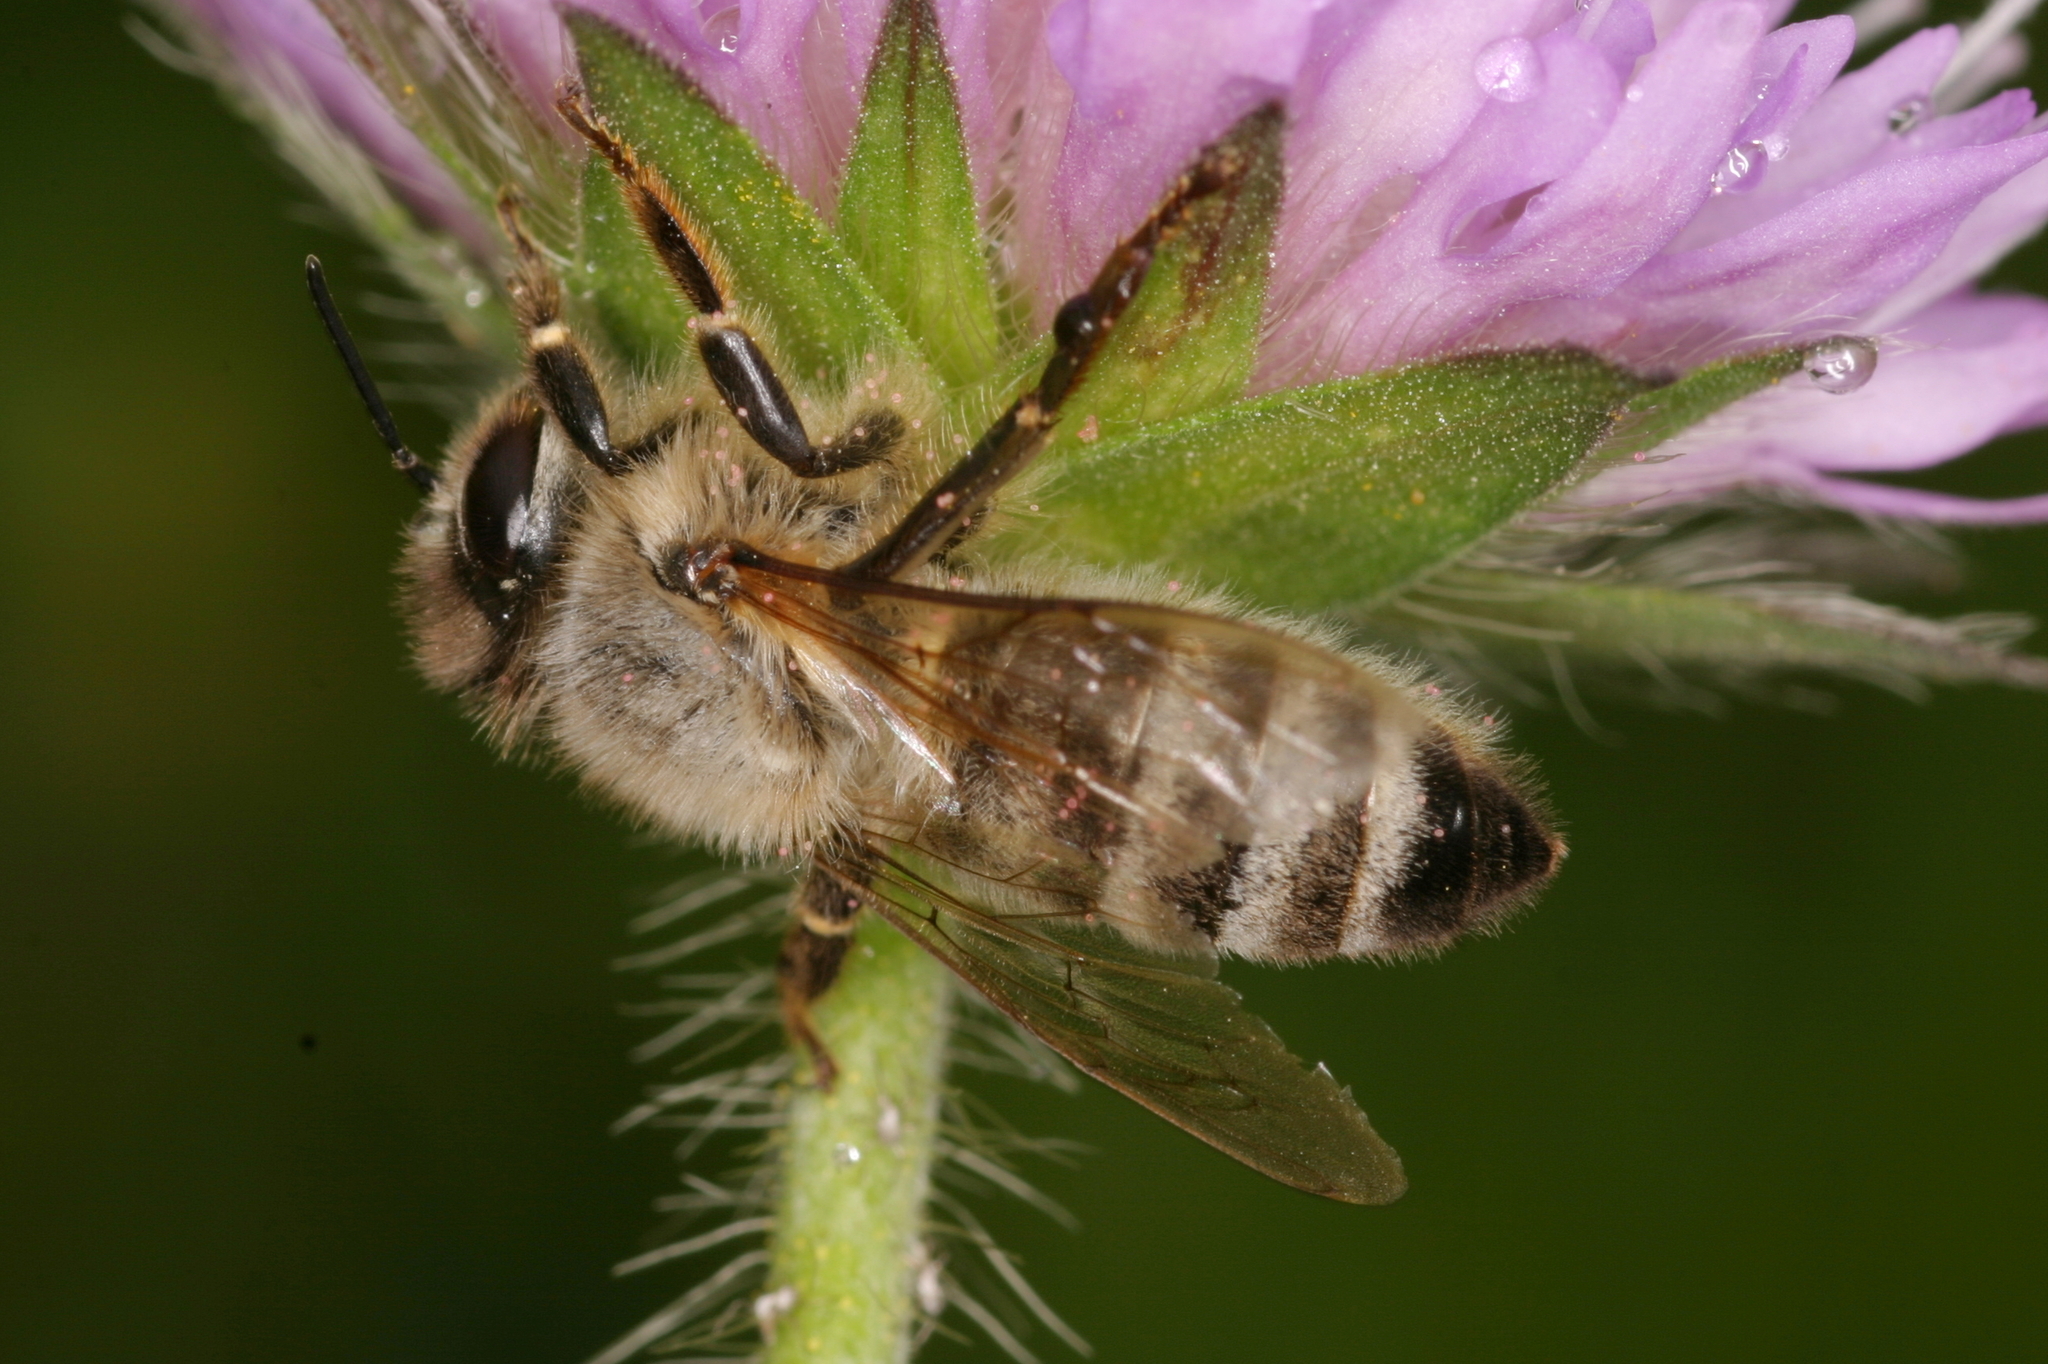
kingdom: Animalia
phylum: Arthropoda
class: Insecta
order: Hymenoptera
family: Apidae
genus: Apis
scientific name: Apis mellifera
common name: Honey bee
